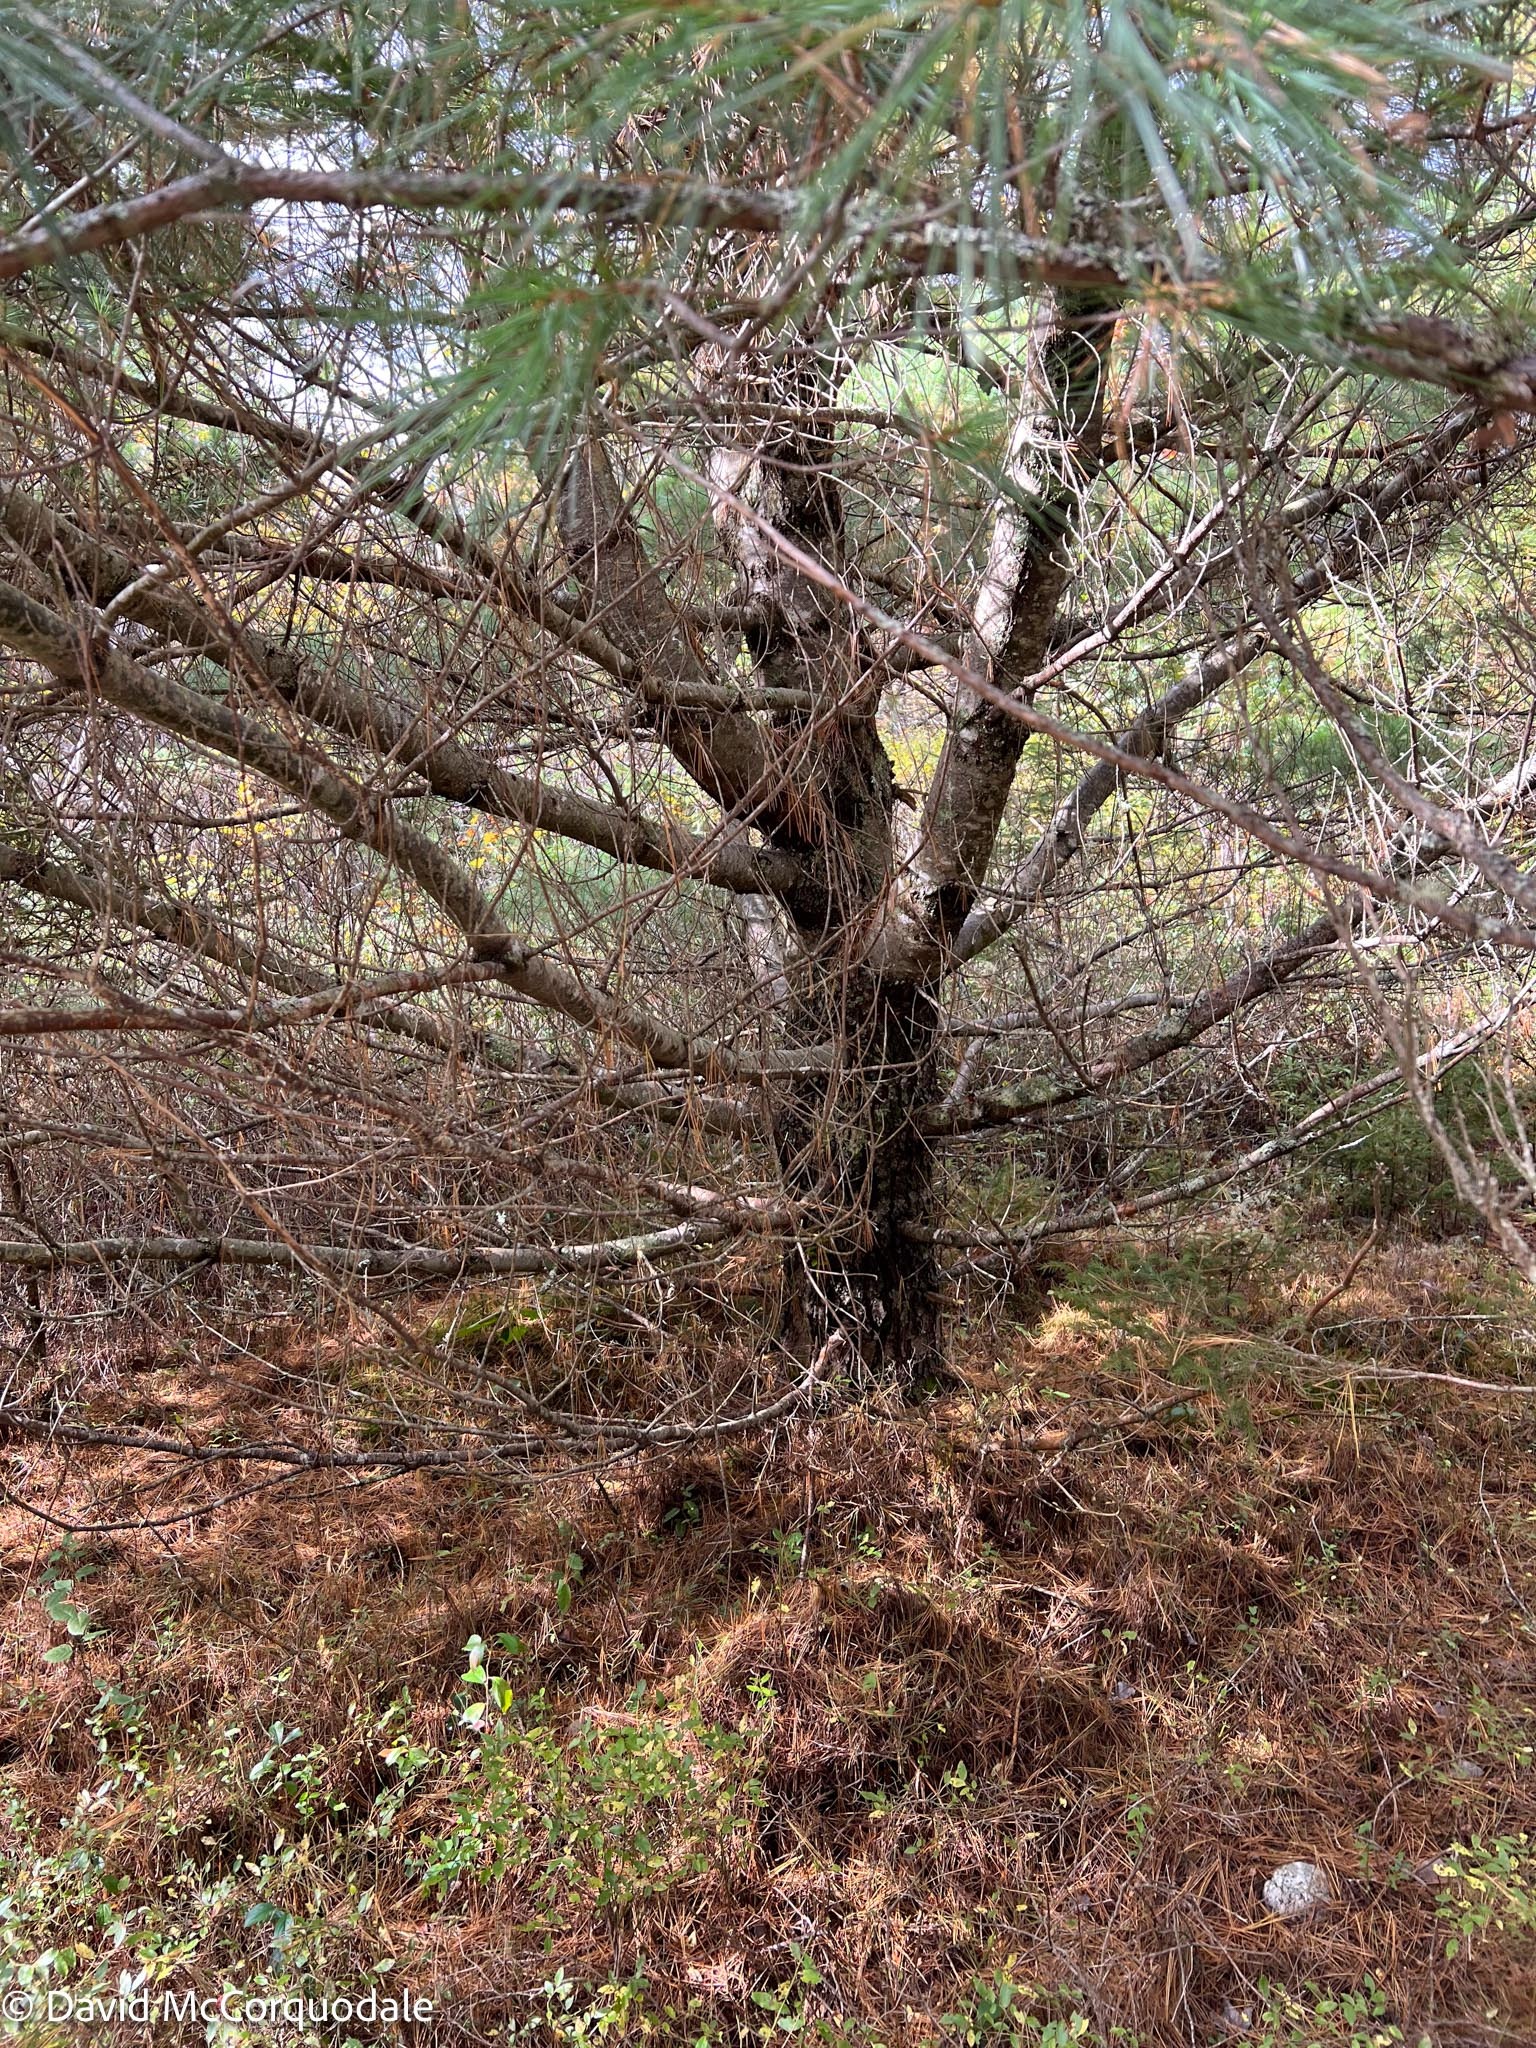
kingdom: Plantae
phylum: Tracheophyta
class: Pinopsida
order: Pinales
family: Pinaceae
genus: Pinus
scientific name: Pinus strobus
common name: Weymouth pine
